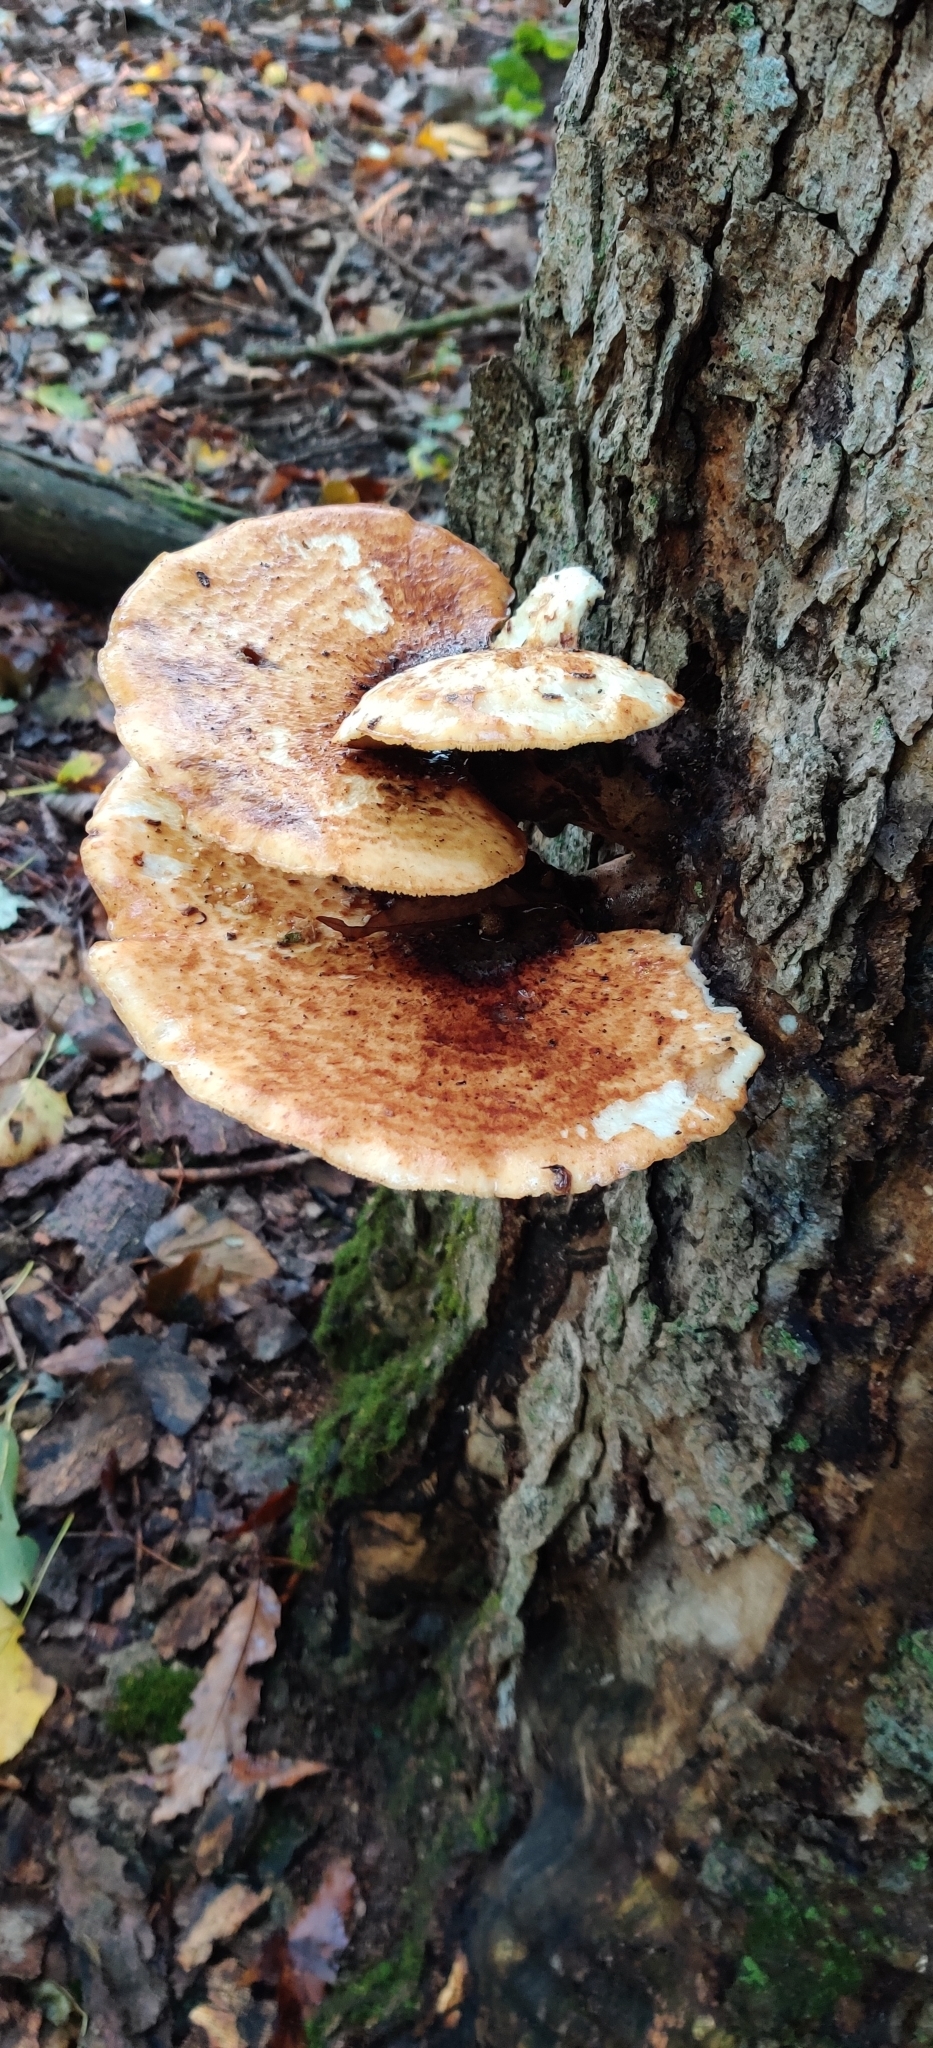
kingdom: Fungi
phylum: Basidiomycota
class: Agaricomycetes
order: Polyporales
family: Polyporaceae
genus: Cerioporus
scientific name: Cerioporus squamosus
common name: Dryad's saddle
